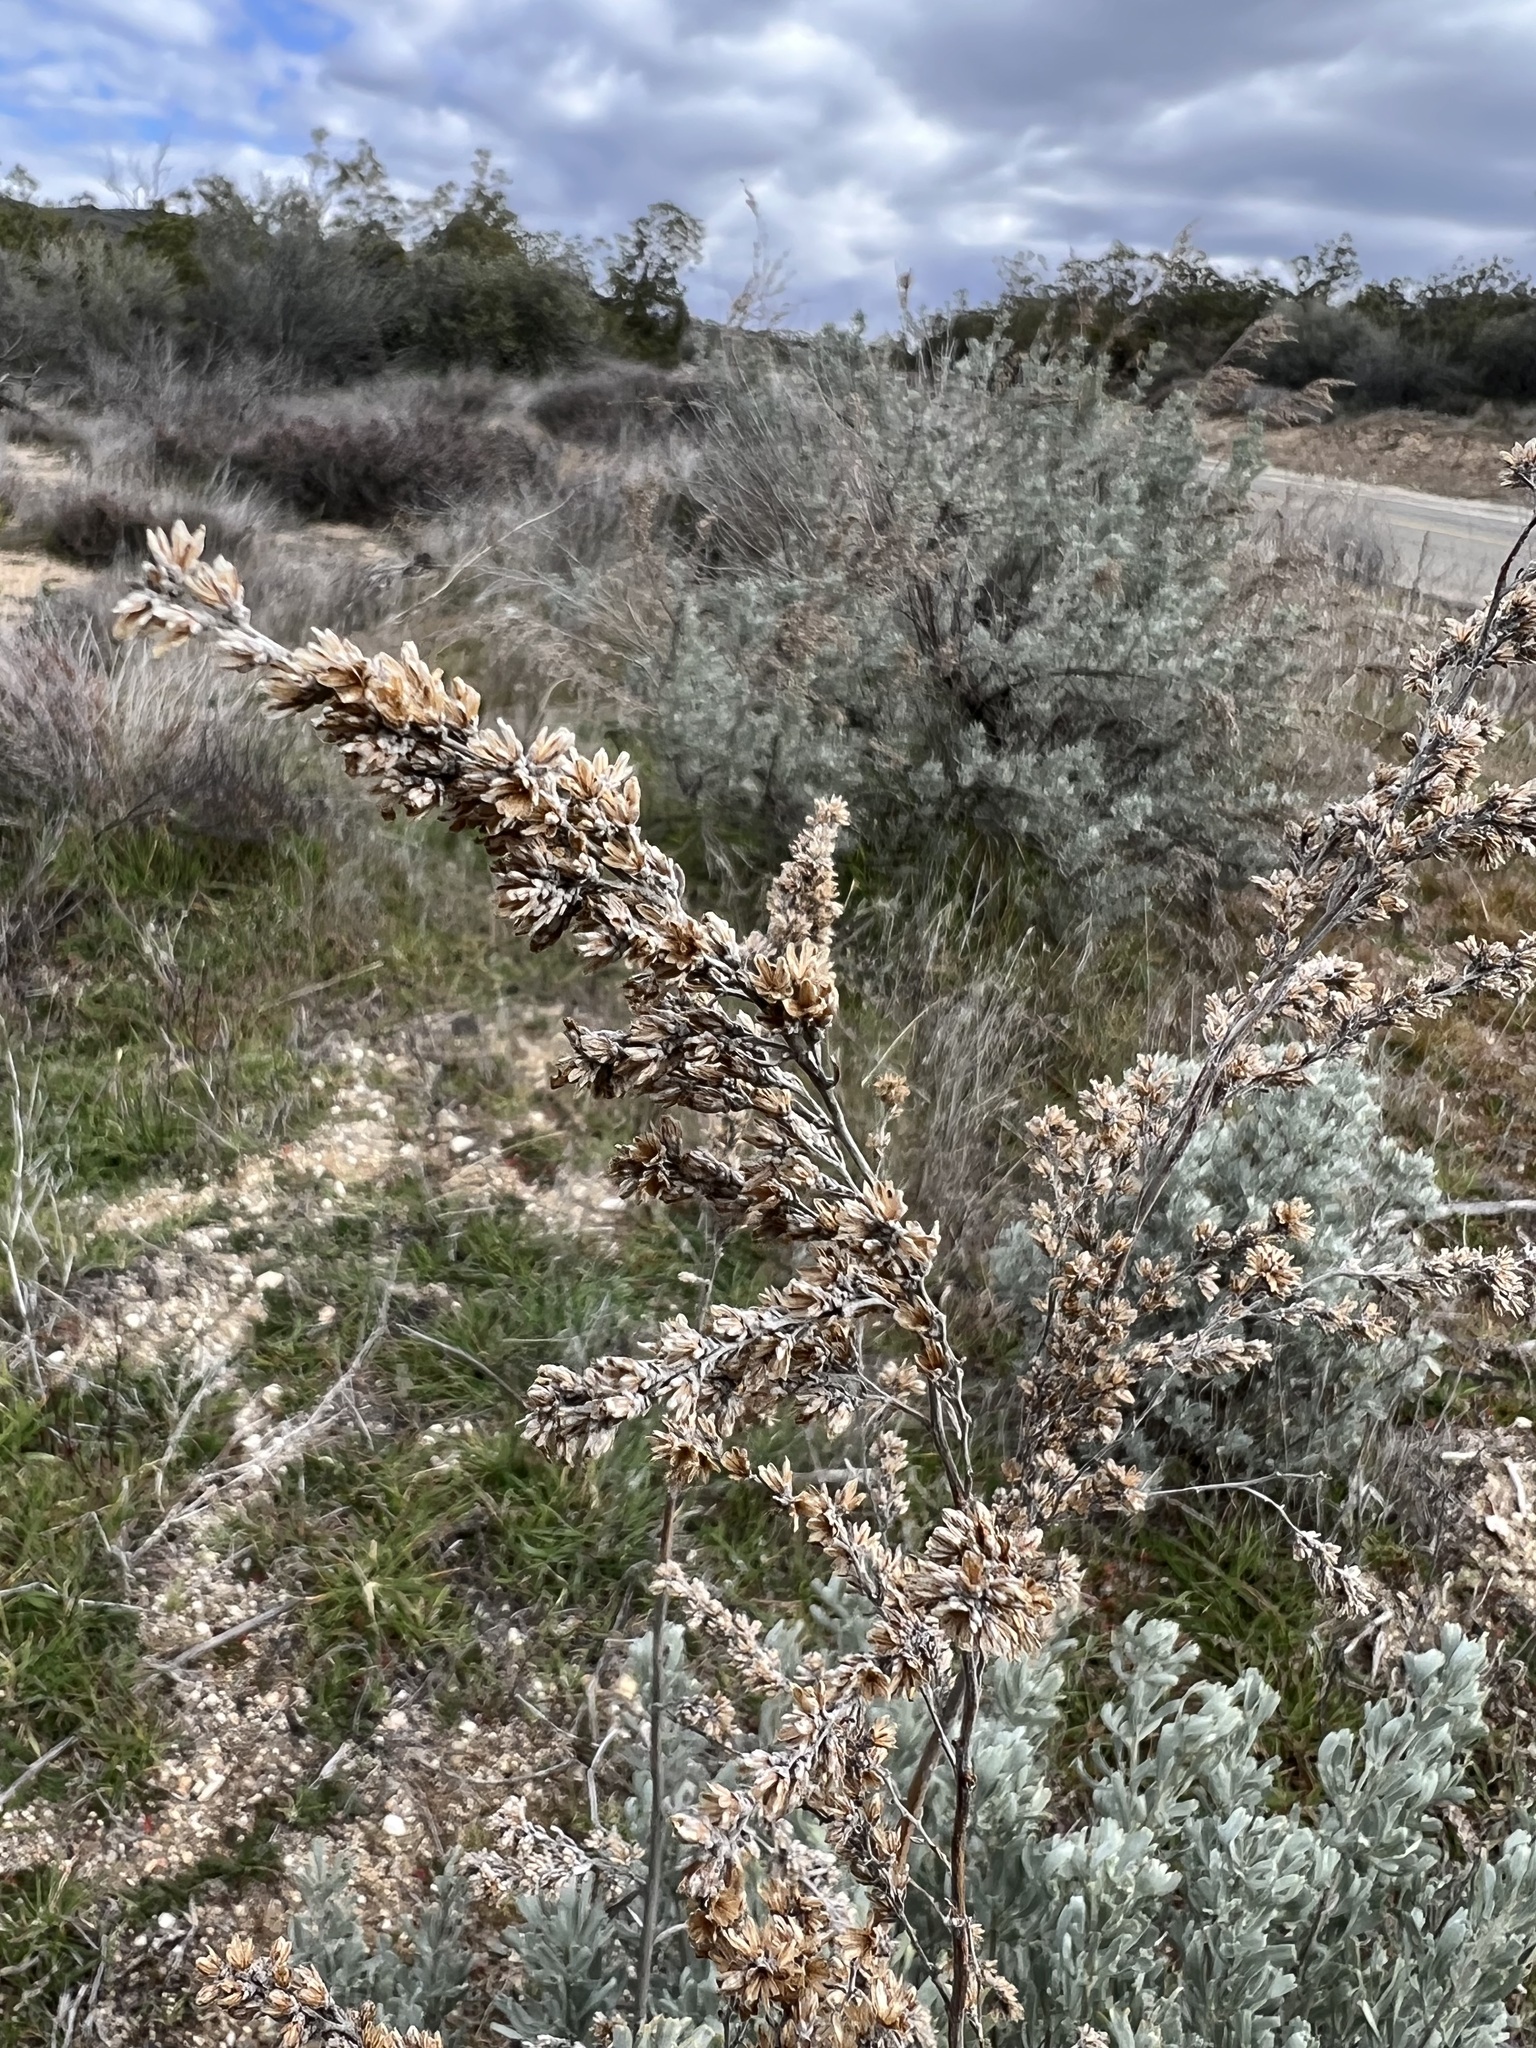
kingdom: Plantae
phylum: Tracheophyta
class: Magnoliopsida
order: Asterales
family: Asteraceae
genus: Artemisia
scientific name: Artemisia tridentata
